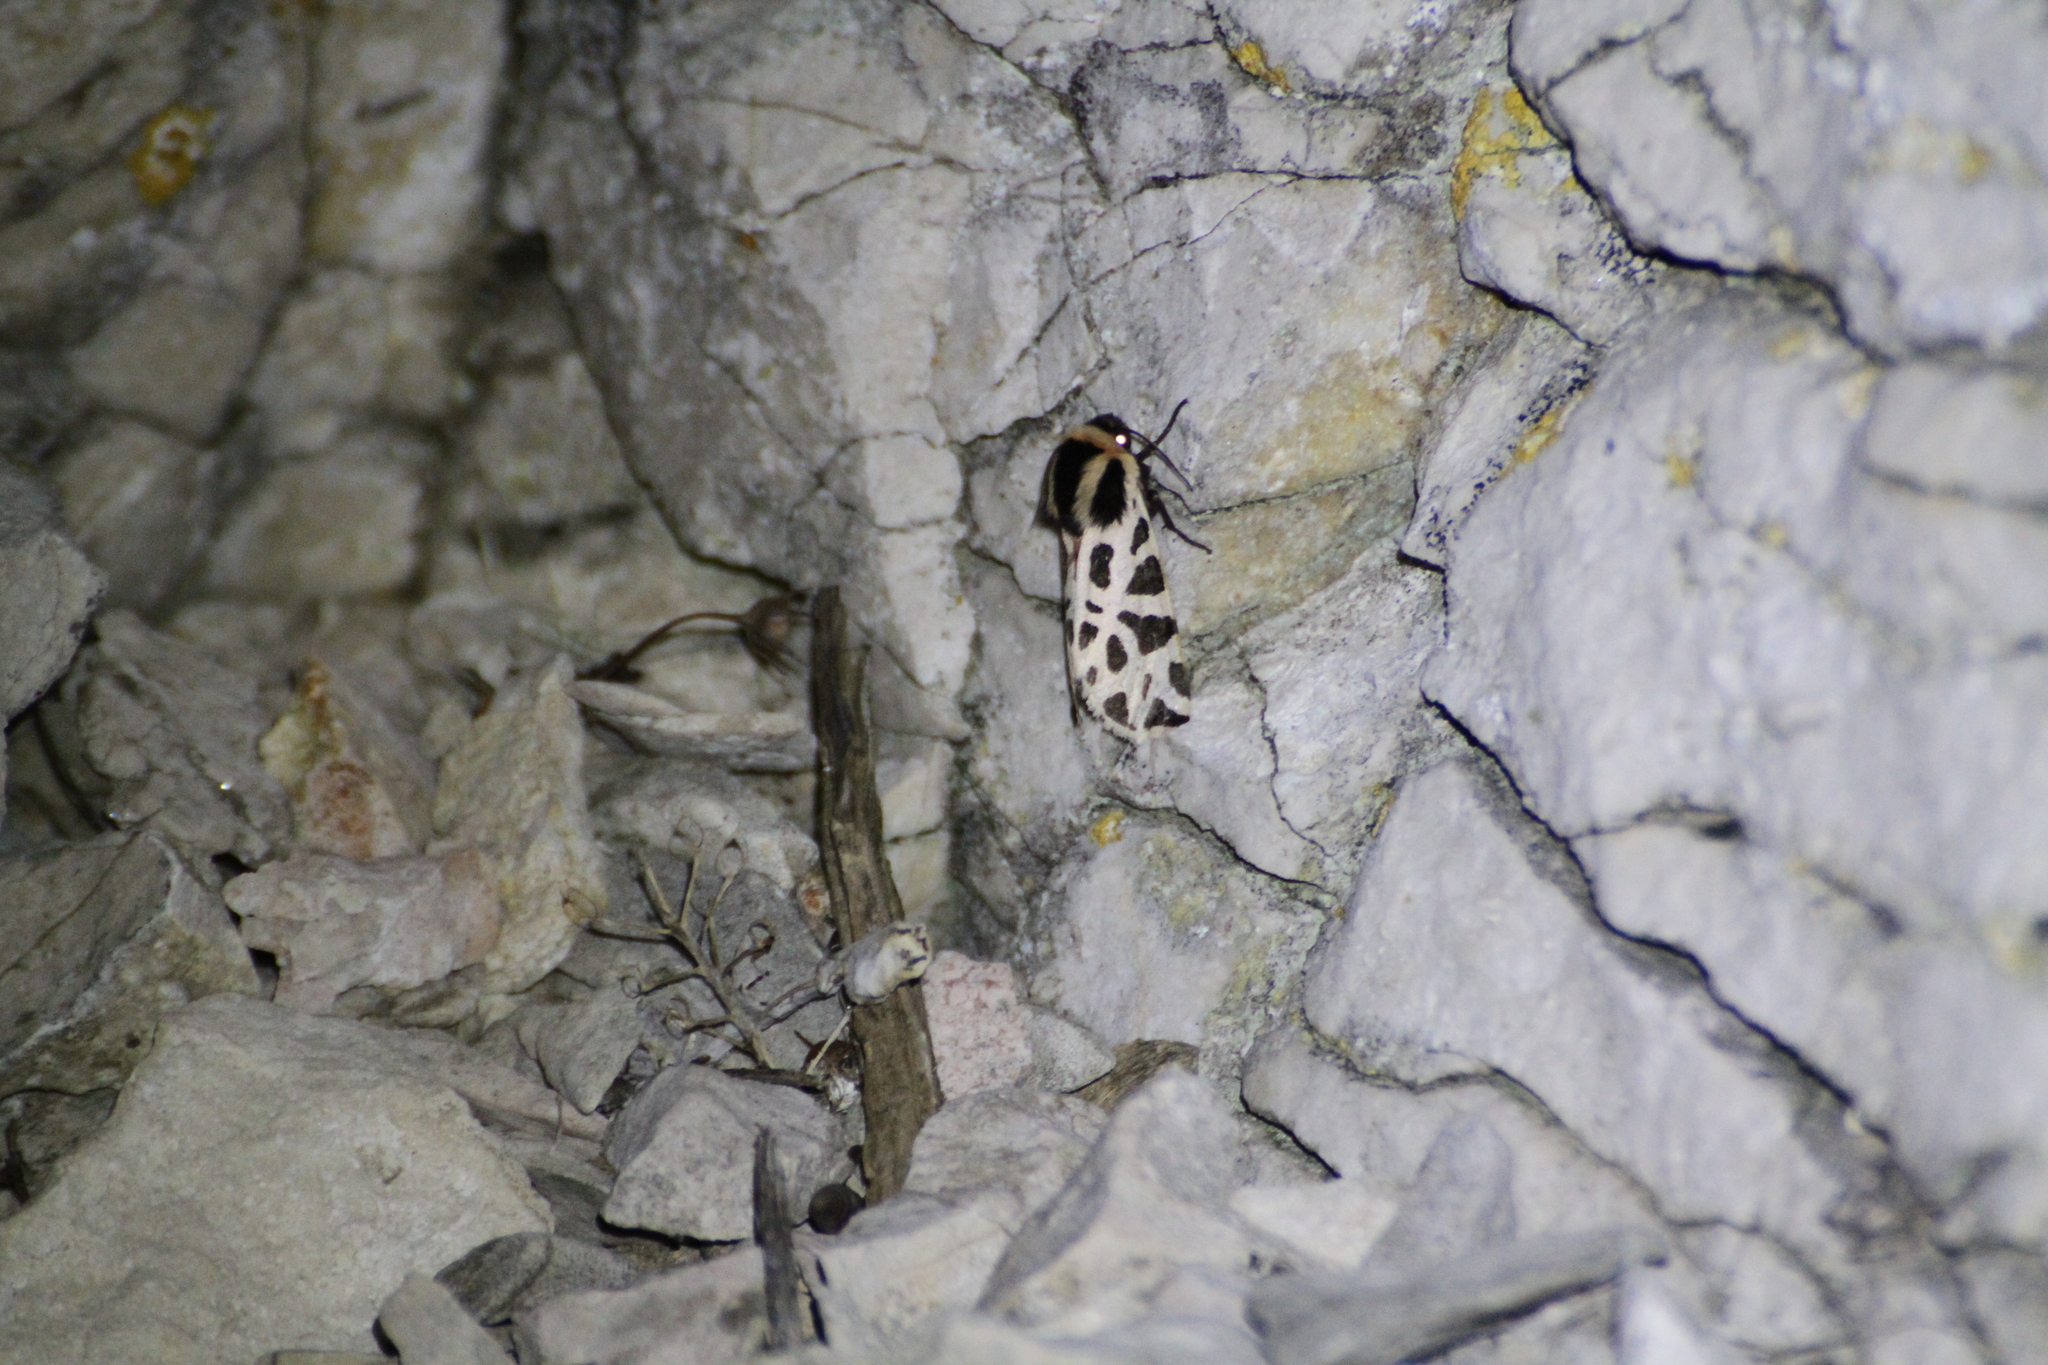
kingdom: Animalia
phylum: Arthropoda
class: Insecta
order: Lepidoptera
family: Erebidae
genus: Cymbalophora
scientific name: Cymbalophora pudica
